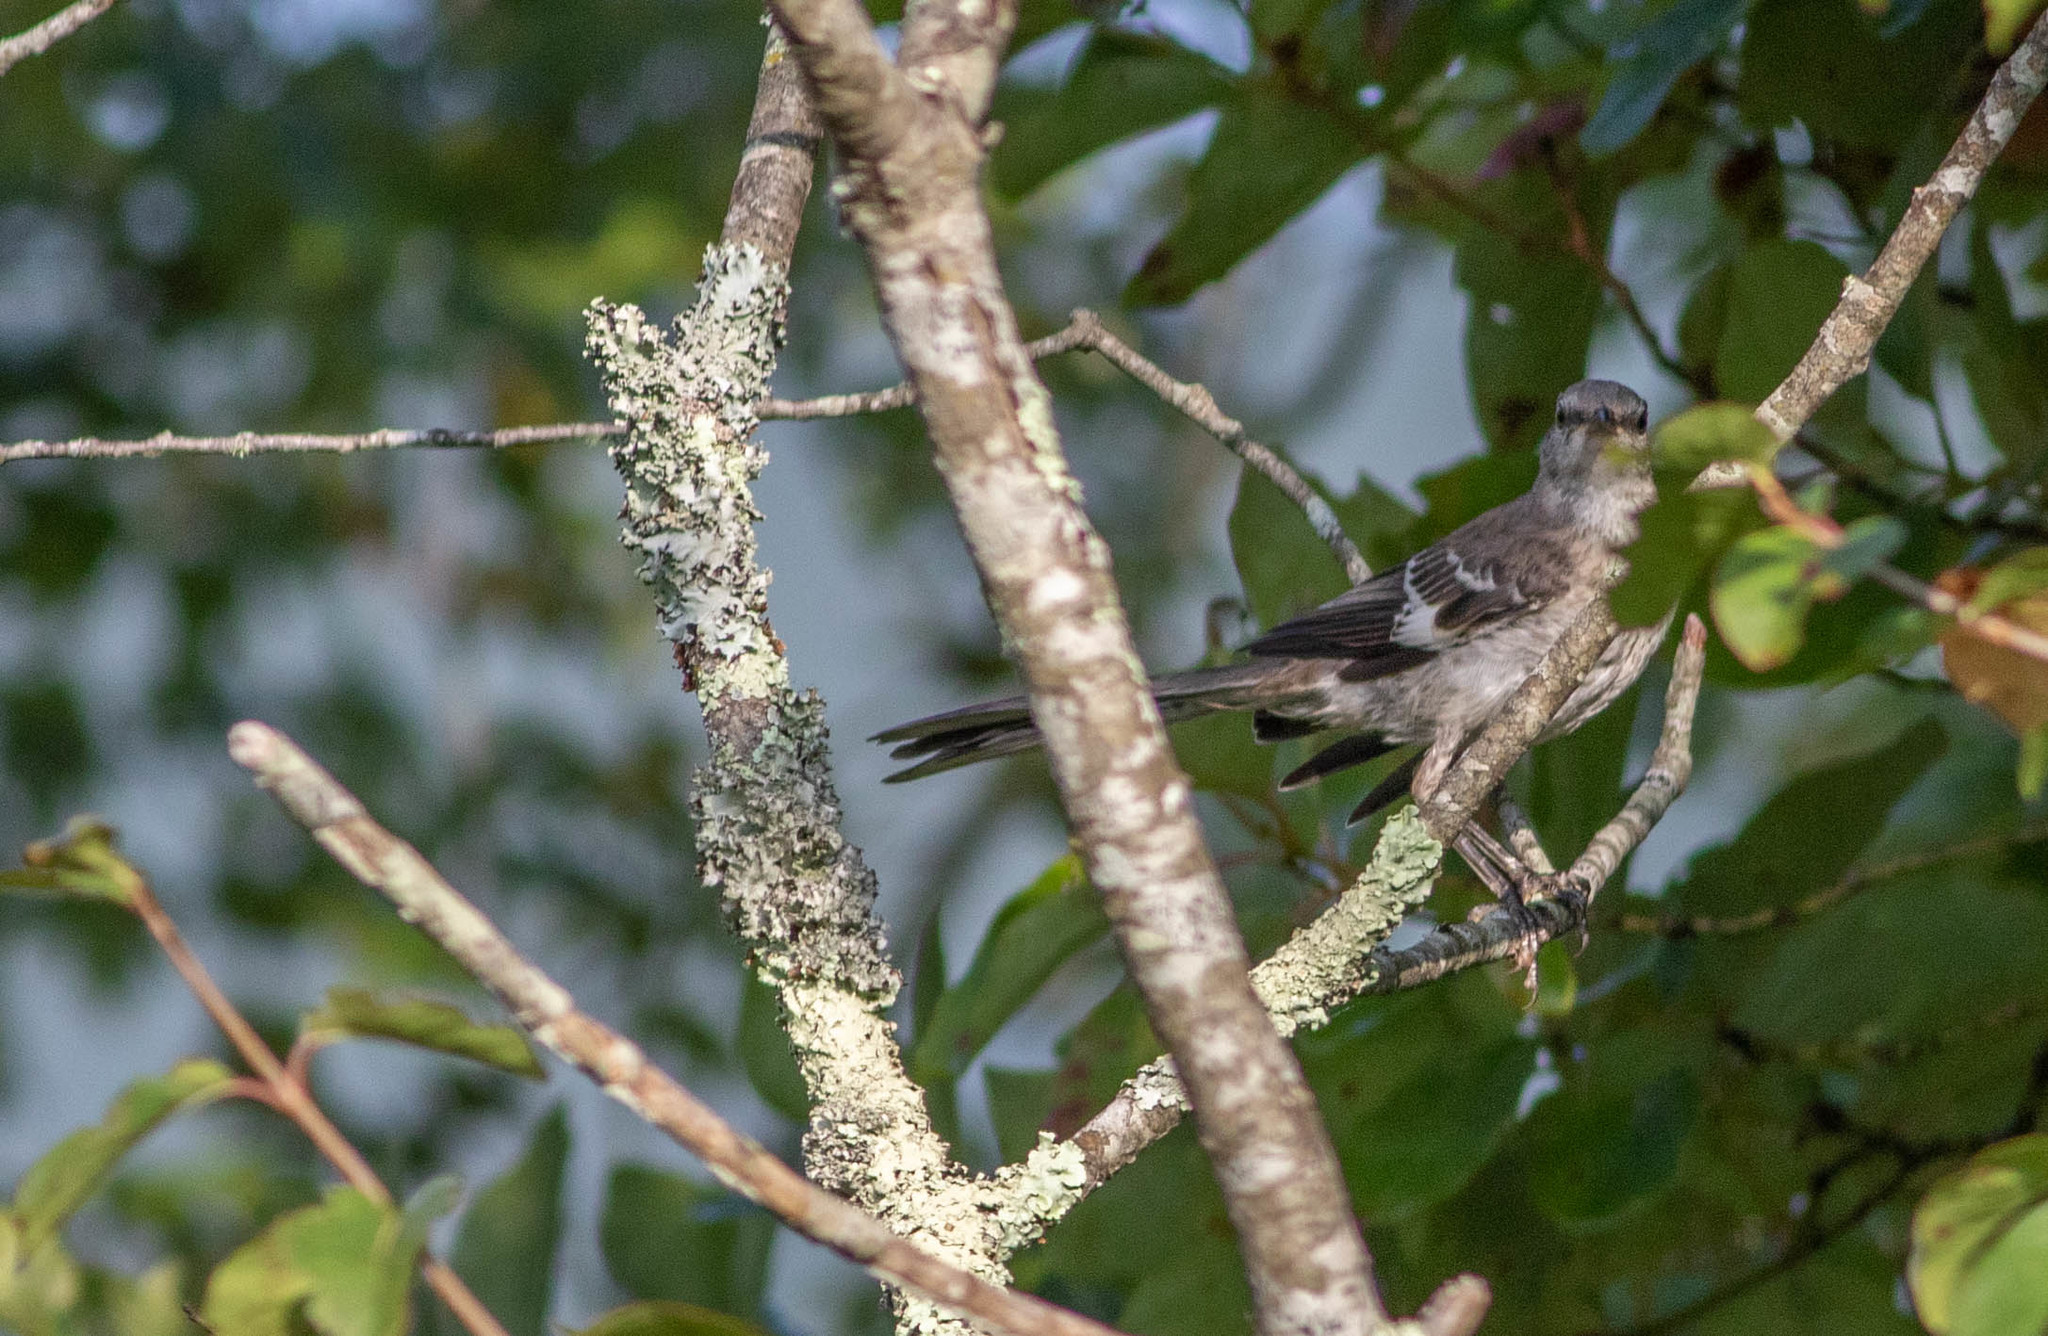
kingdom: Animalia
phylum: Chordata
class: Aves
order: Passeriformes
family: Mimidae
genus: Mimus
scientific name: Mimus polyglottos
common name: Northern mockingbird
